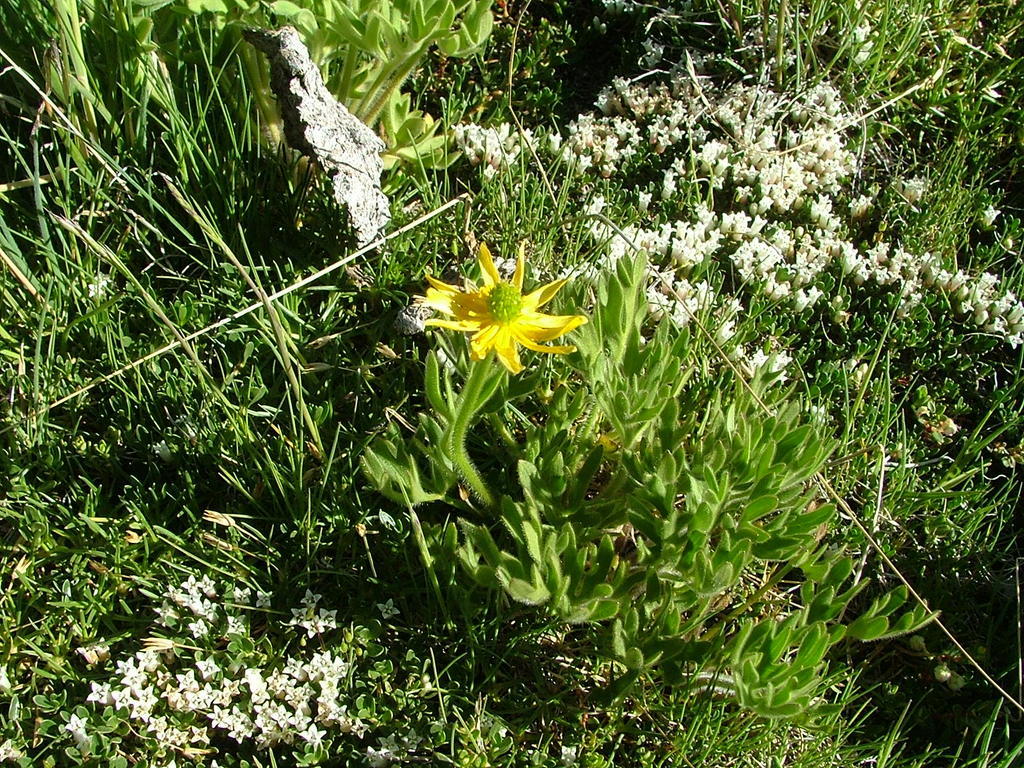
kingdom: Plantae
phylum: Tracheophyta
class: Magnoliopsida
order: Ranunculales
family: Ranunculaceae
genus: Ranunculus
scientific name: Ranunculus peduncularis
